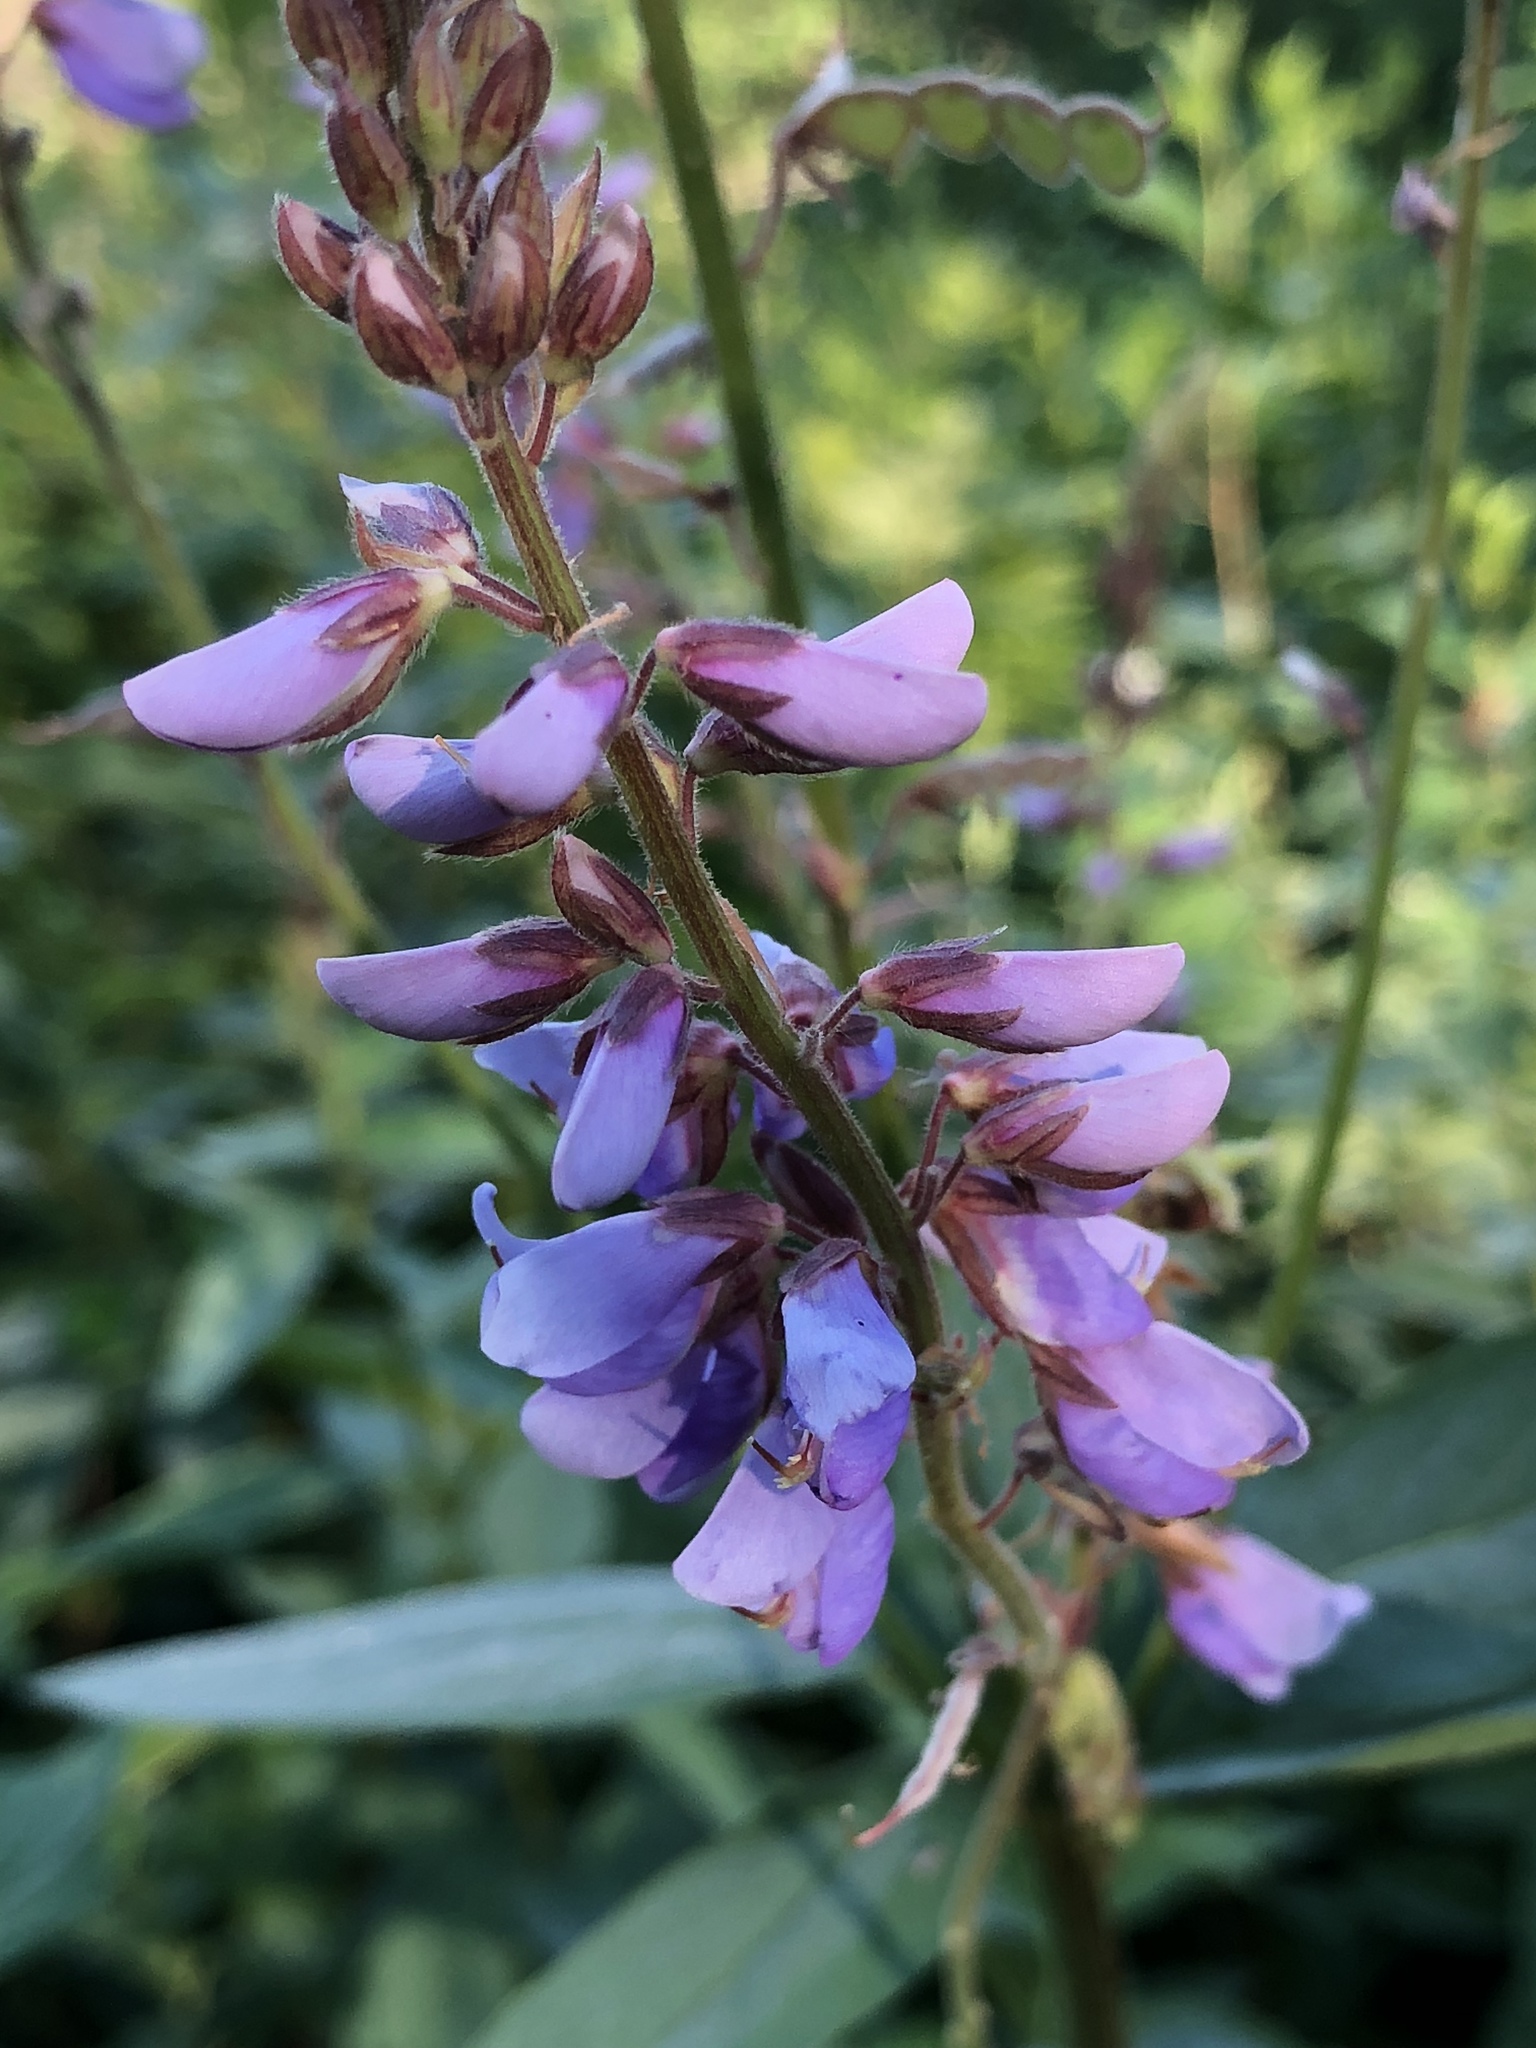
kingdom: Plantae
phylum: Tracheophyta
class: Magnoliopsida
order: Fabales
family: Fabaceae
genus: Desmodium
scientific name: Desmodium canadense
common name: Canada tick-trefoil
